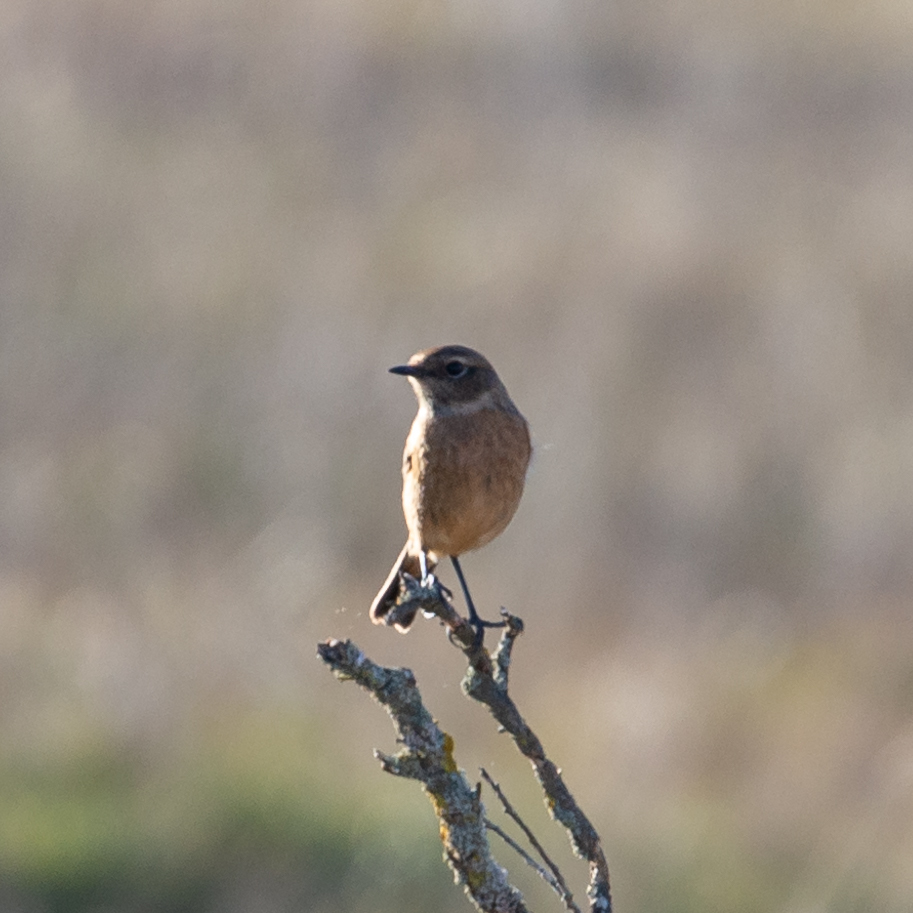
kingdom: Animalia
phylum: Chordata
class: Aves
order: Passeriformes
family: Muscicapidae
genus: Saxicola
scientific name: Saxicola rubicola
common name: European stonechat
